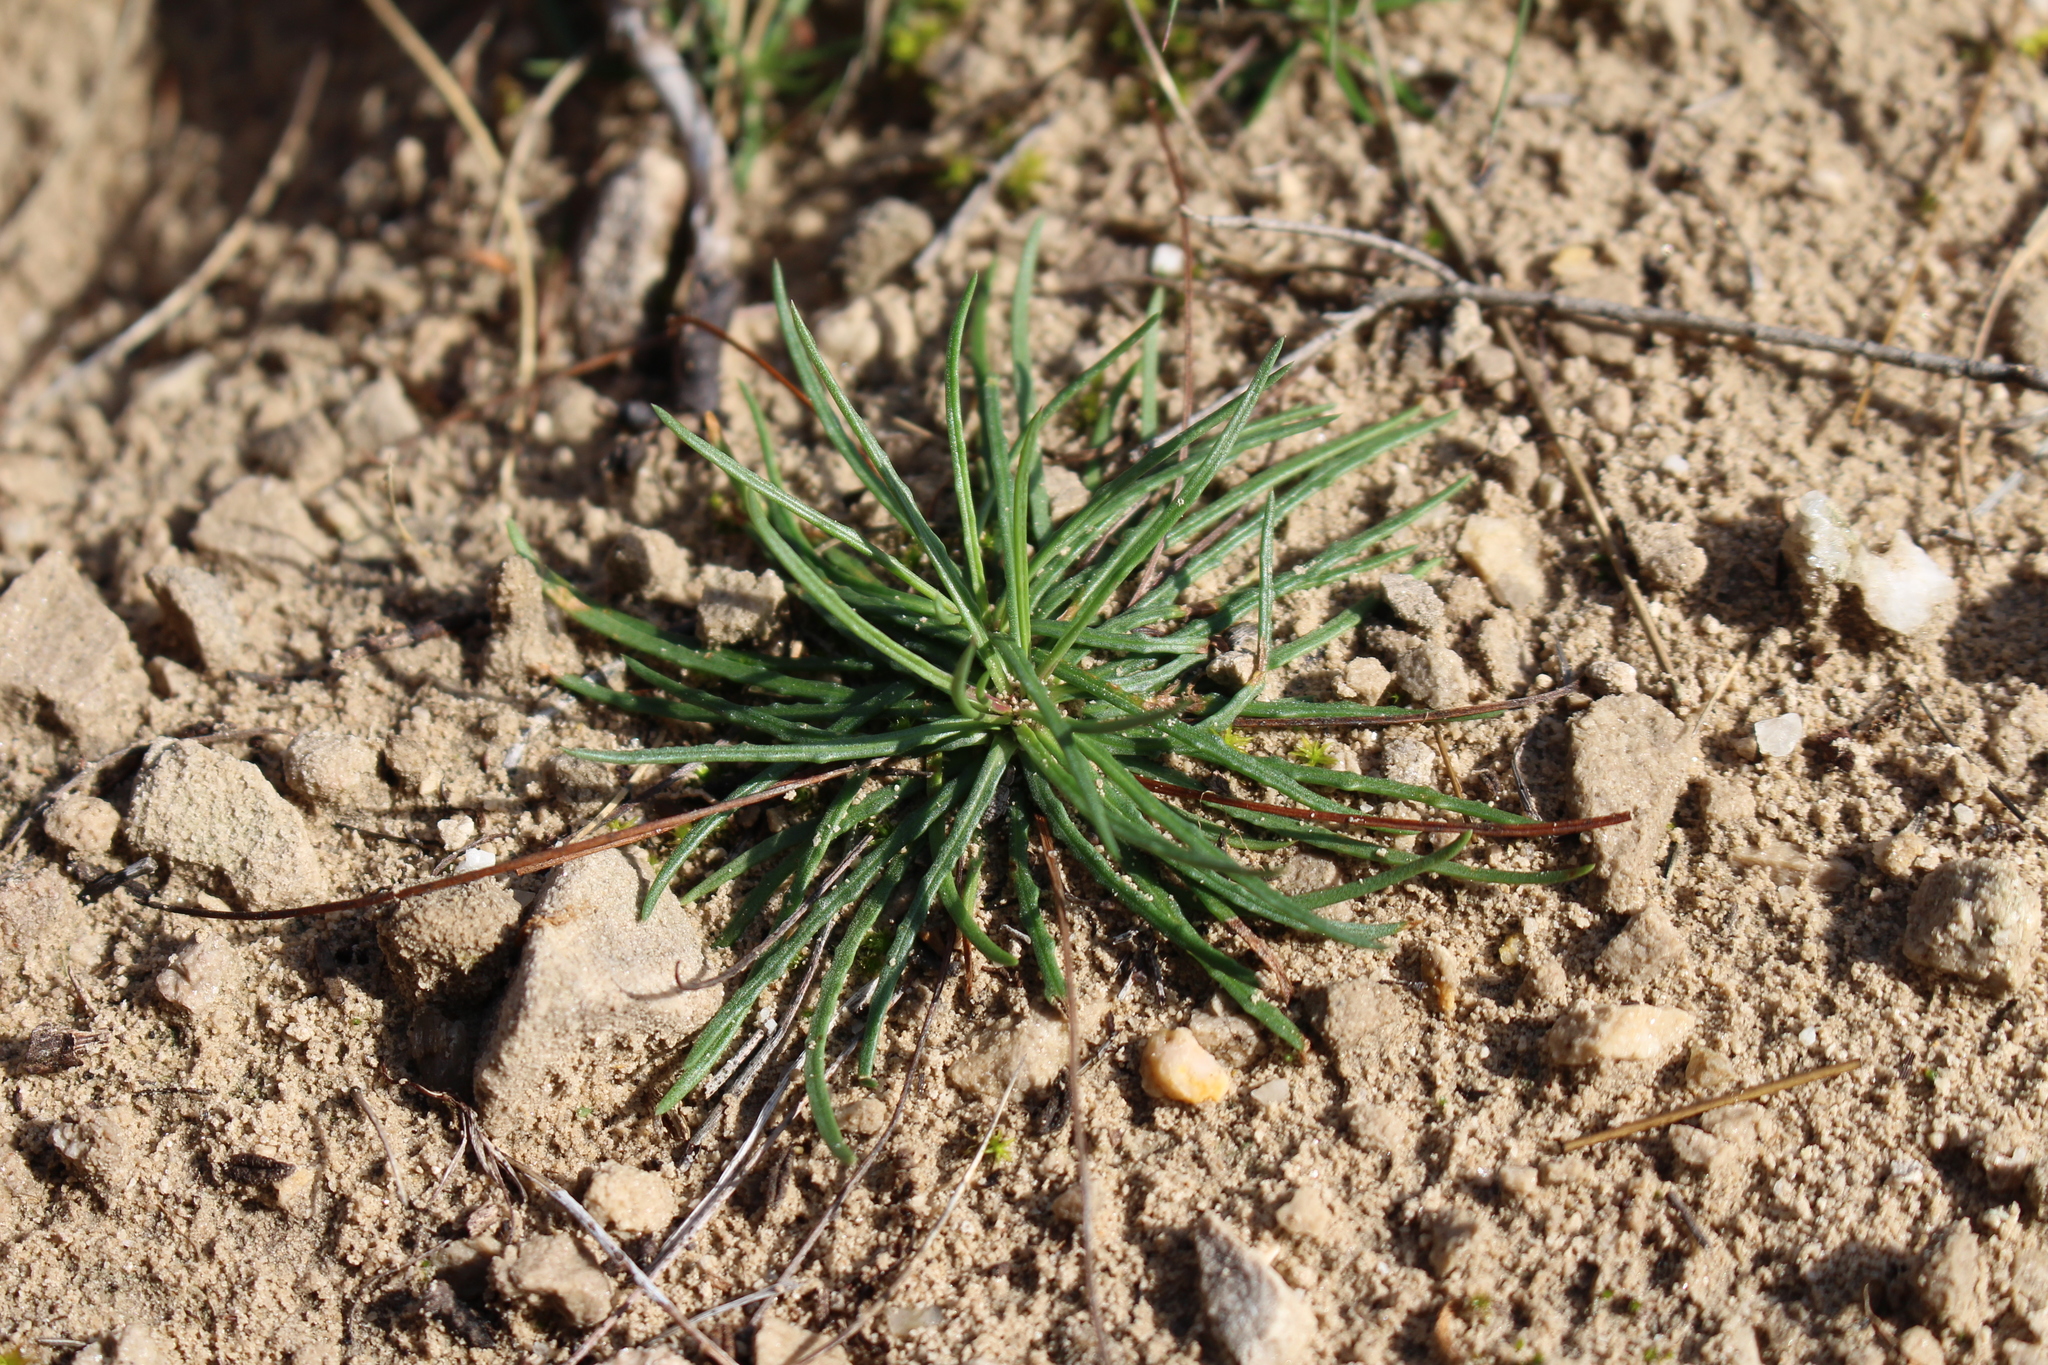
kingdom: Plantae
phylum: Tracheophyta
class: Magnoliopsida
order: Caryophyllales
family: Plumbaginaceae
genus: Armeria
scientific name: Armeria girardii
